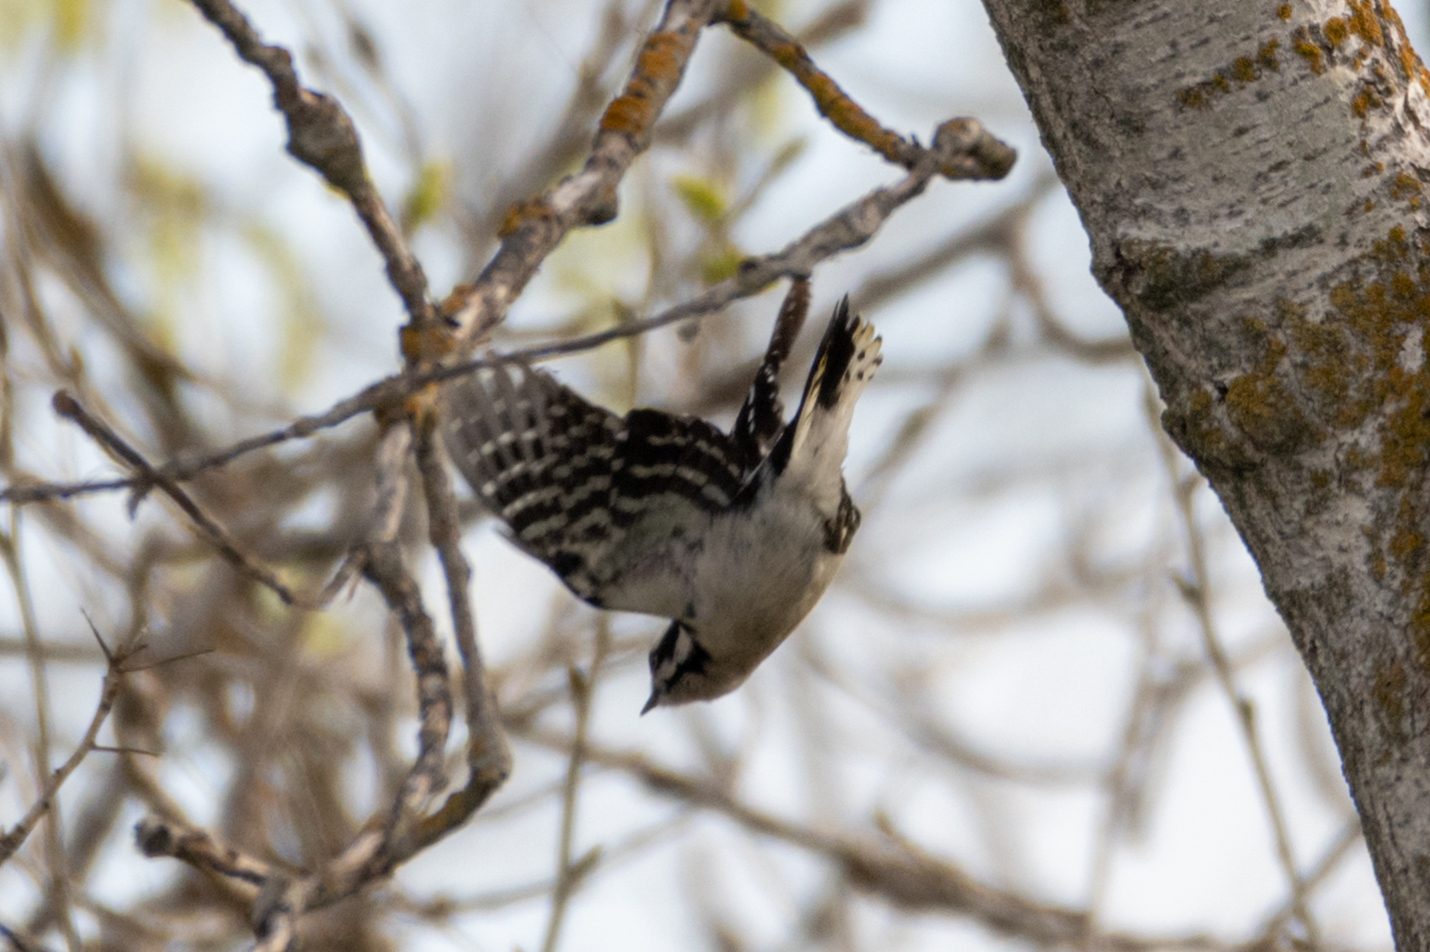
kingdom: Animalia
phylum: Chordata
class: Aves
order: Piciformes
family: Picidae
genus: Dryobates
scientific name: Dryobates pubescens
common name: Downy woodpecker
